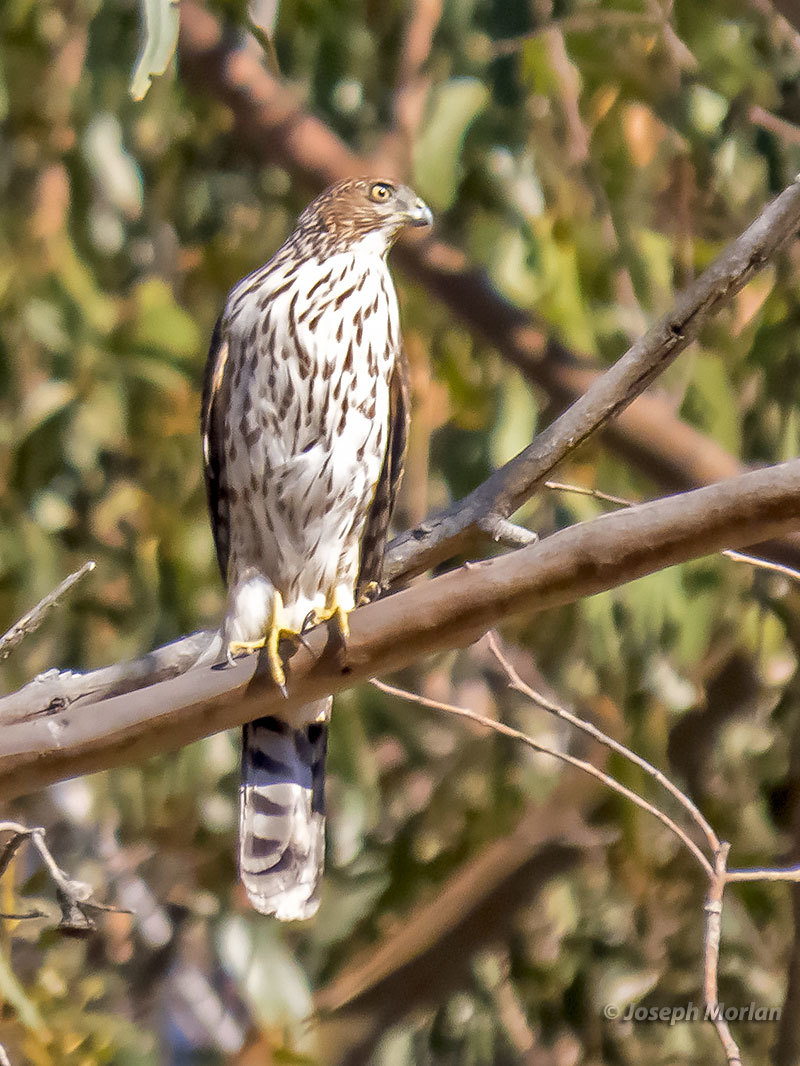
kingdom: Animalia
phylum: Chordata
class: Aves
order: Accipitriformes
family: Accipitridae
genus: Accipiter
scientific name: Accipiter cooperii
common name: Cooper's hawk
